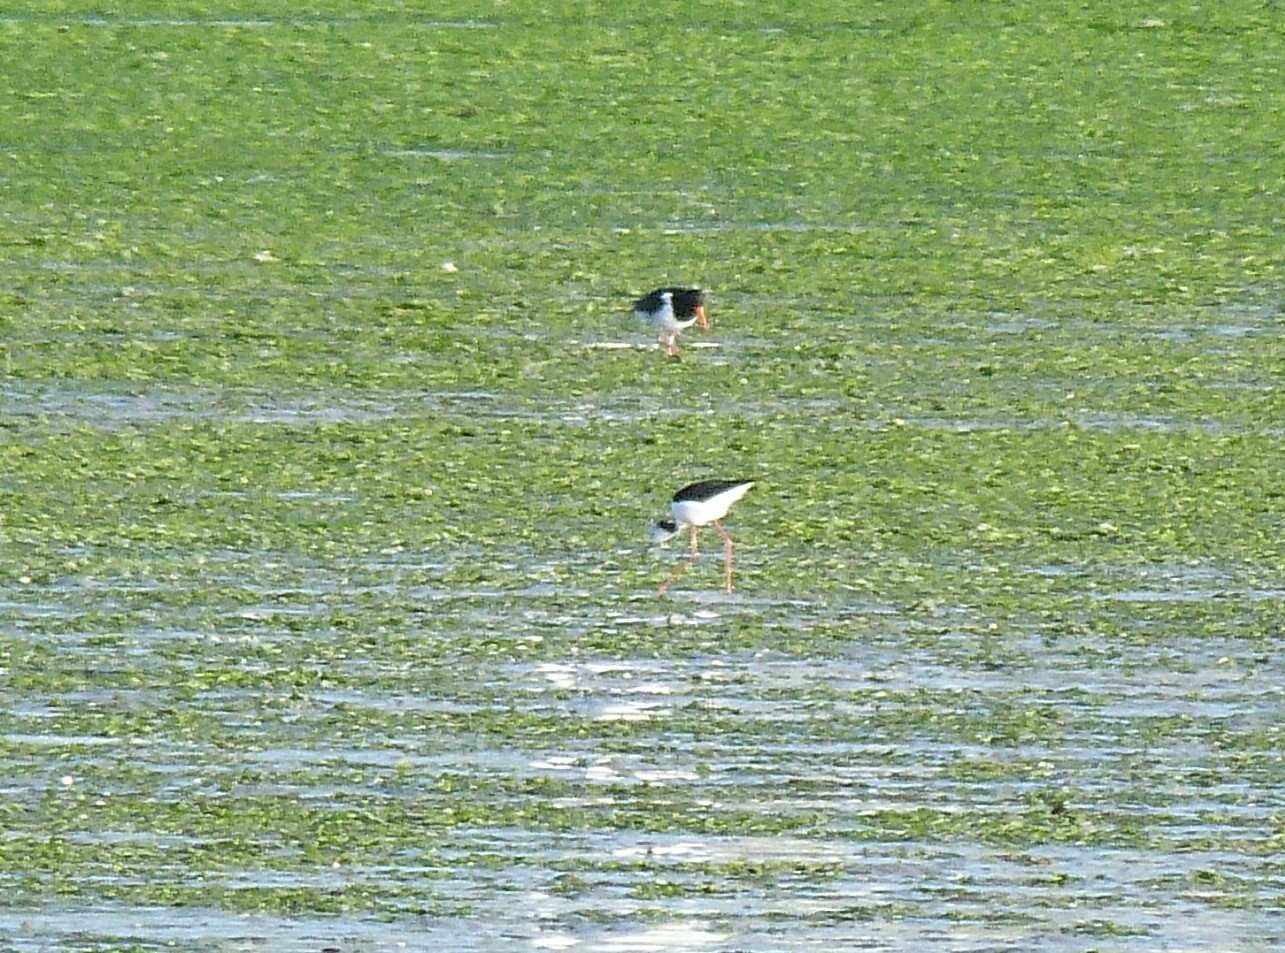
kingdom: Animalia
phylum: Chordata
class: Aves
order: Charadriiformes
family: Recurvirostridae
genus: Himantopus
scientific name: Himantopus leucocephalus
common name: White-headed stilt
